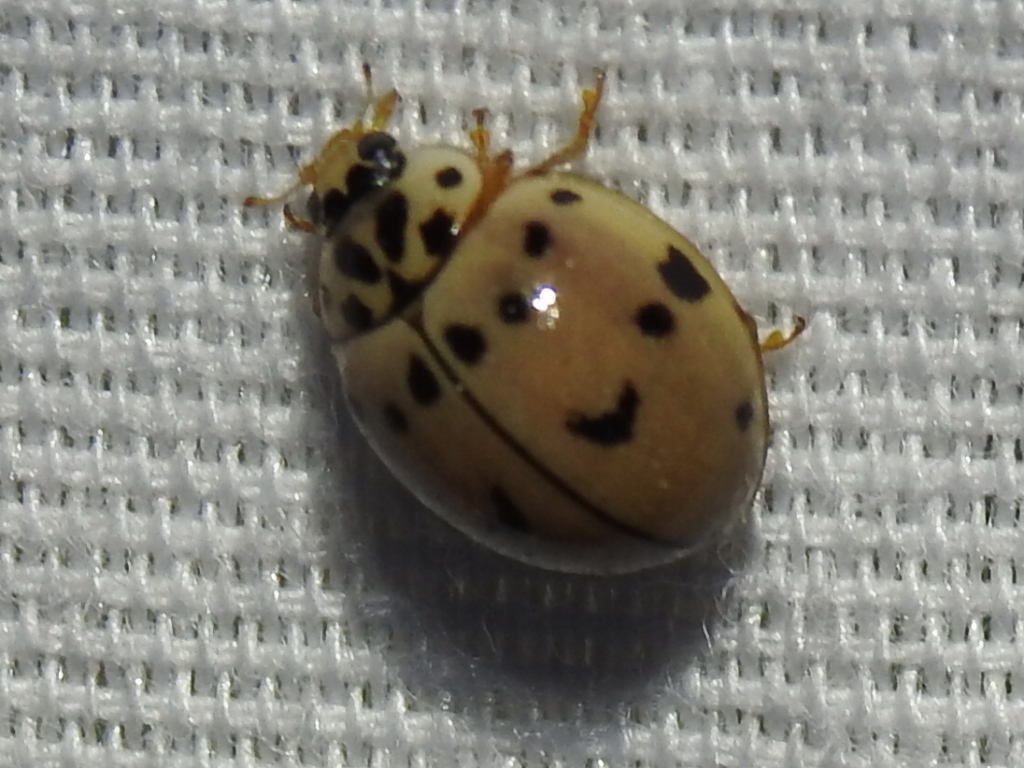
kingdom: Animalia
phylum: Arthropoda
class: Insecta
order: Coleoptera
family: Coccinellidae
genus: Olla
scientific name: Olla v-nigrum
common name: Ashy gray lady beetle
